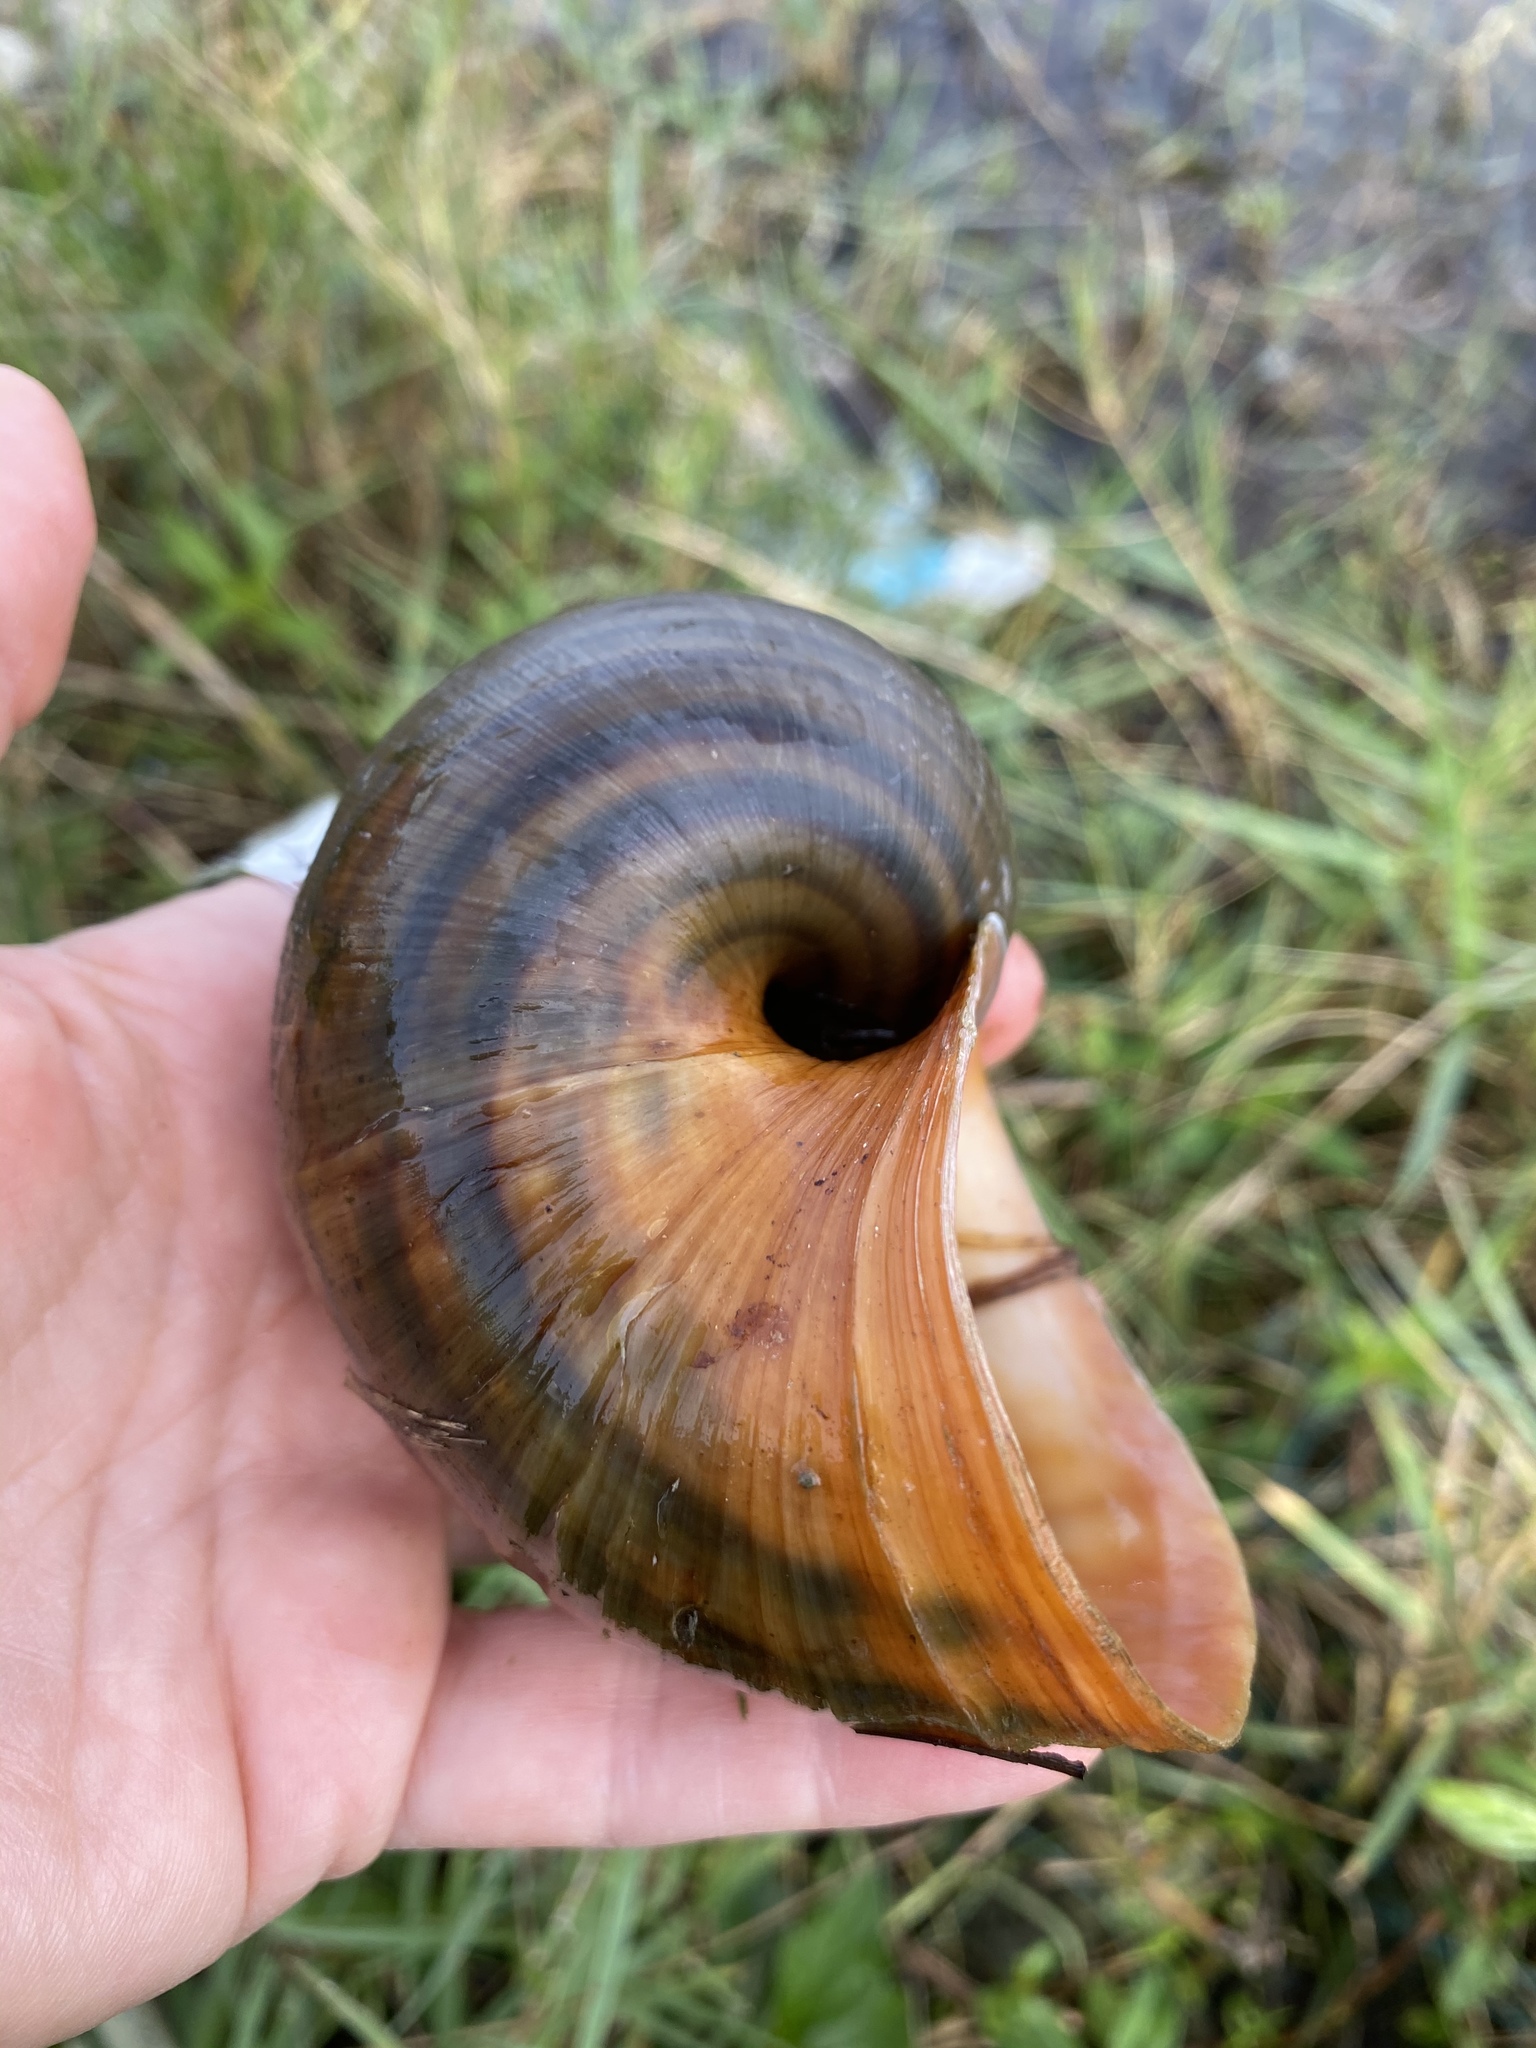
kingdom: Animalia
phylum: Mollusca
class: Gastropoda
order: Architaenioglossa
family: Ampullariidae
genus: Pomacea
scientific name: Pomacea maculata
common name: Giant applesnail
